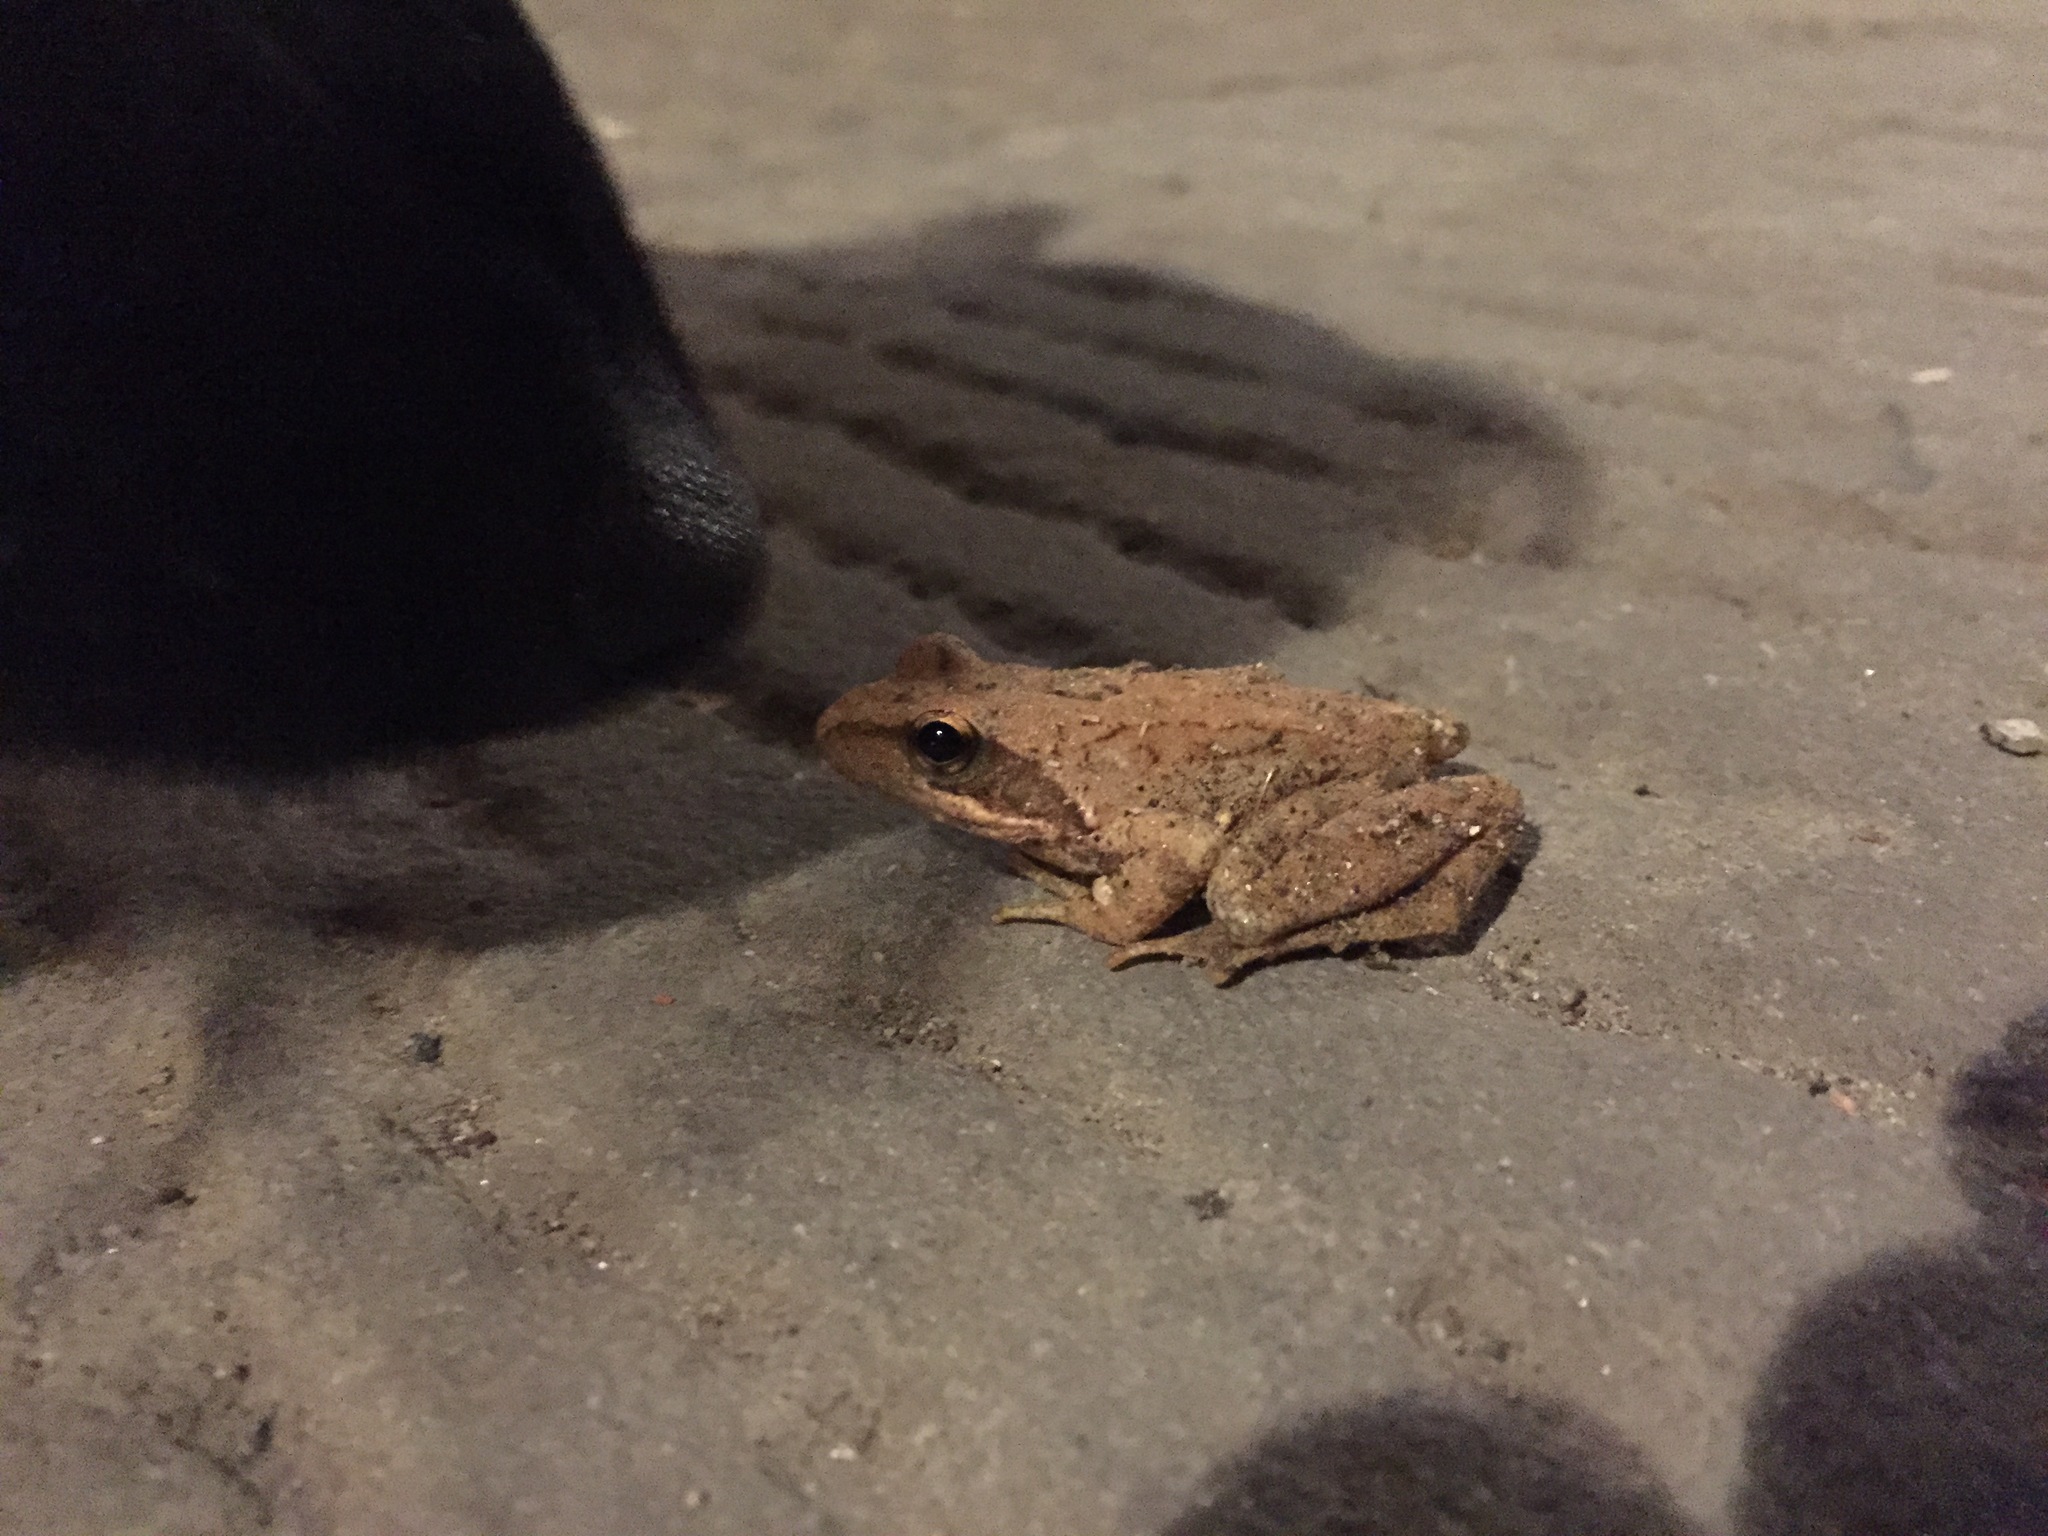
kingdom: Animalia
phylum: Chordata
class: Amphibia
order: Anura
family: Ranidae
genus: Rana
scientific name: Rana
